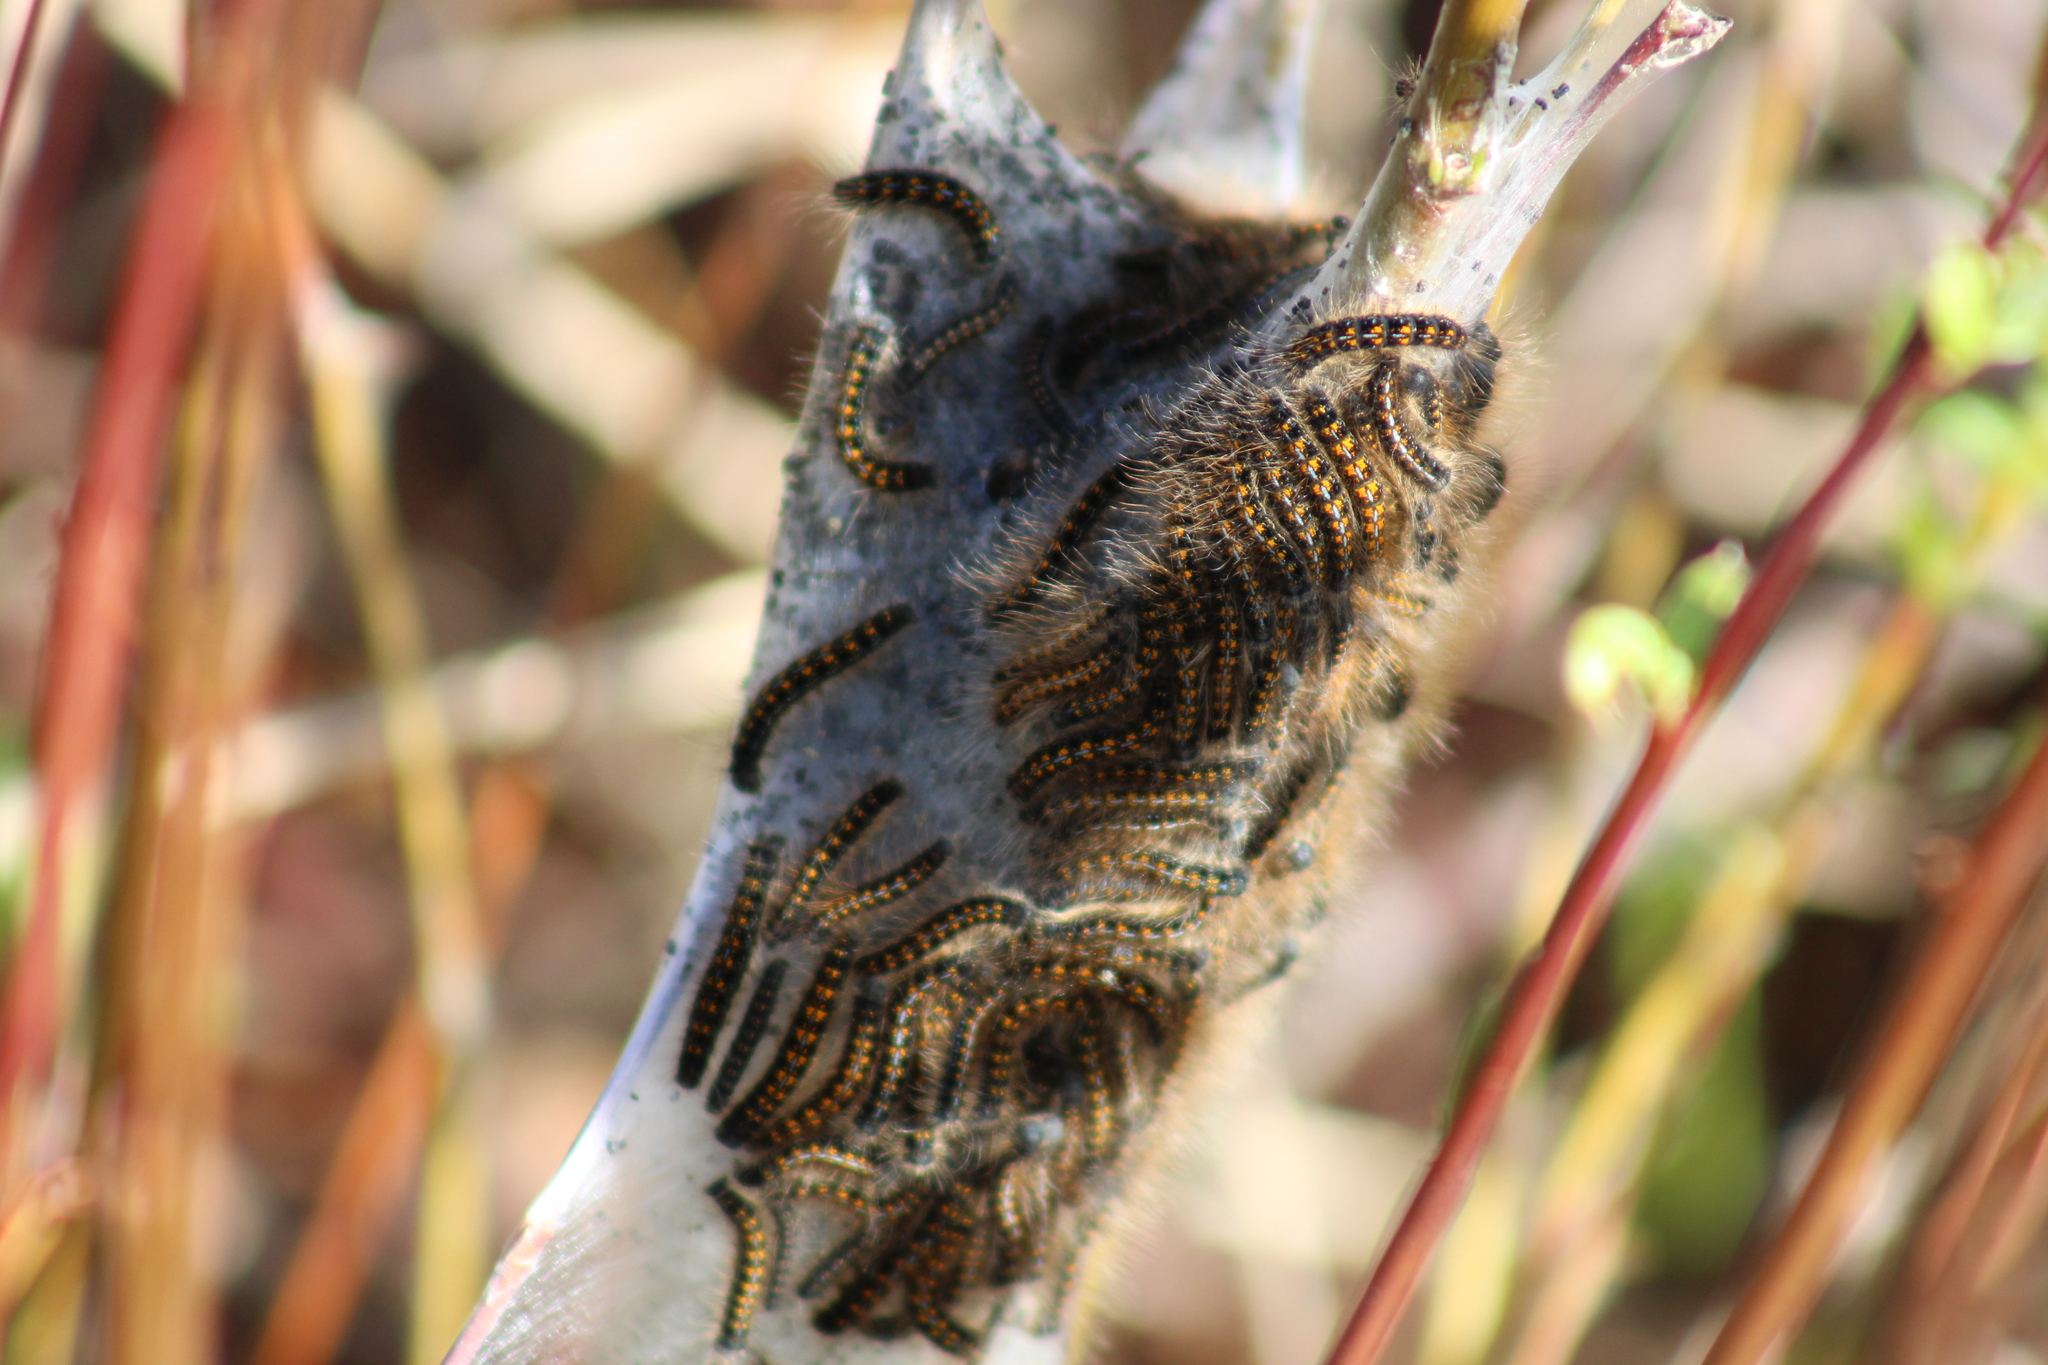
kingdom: Animalia
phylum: Arthropoda
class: Insecta
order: Lepidoptera
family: Lasiocampidae
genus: Malacosoma
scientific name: Malacosoma californica
